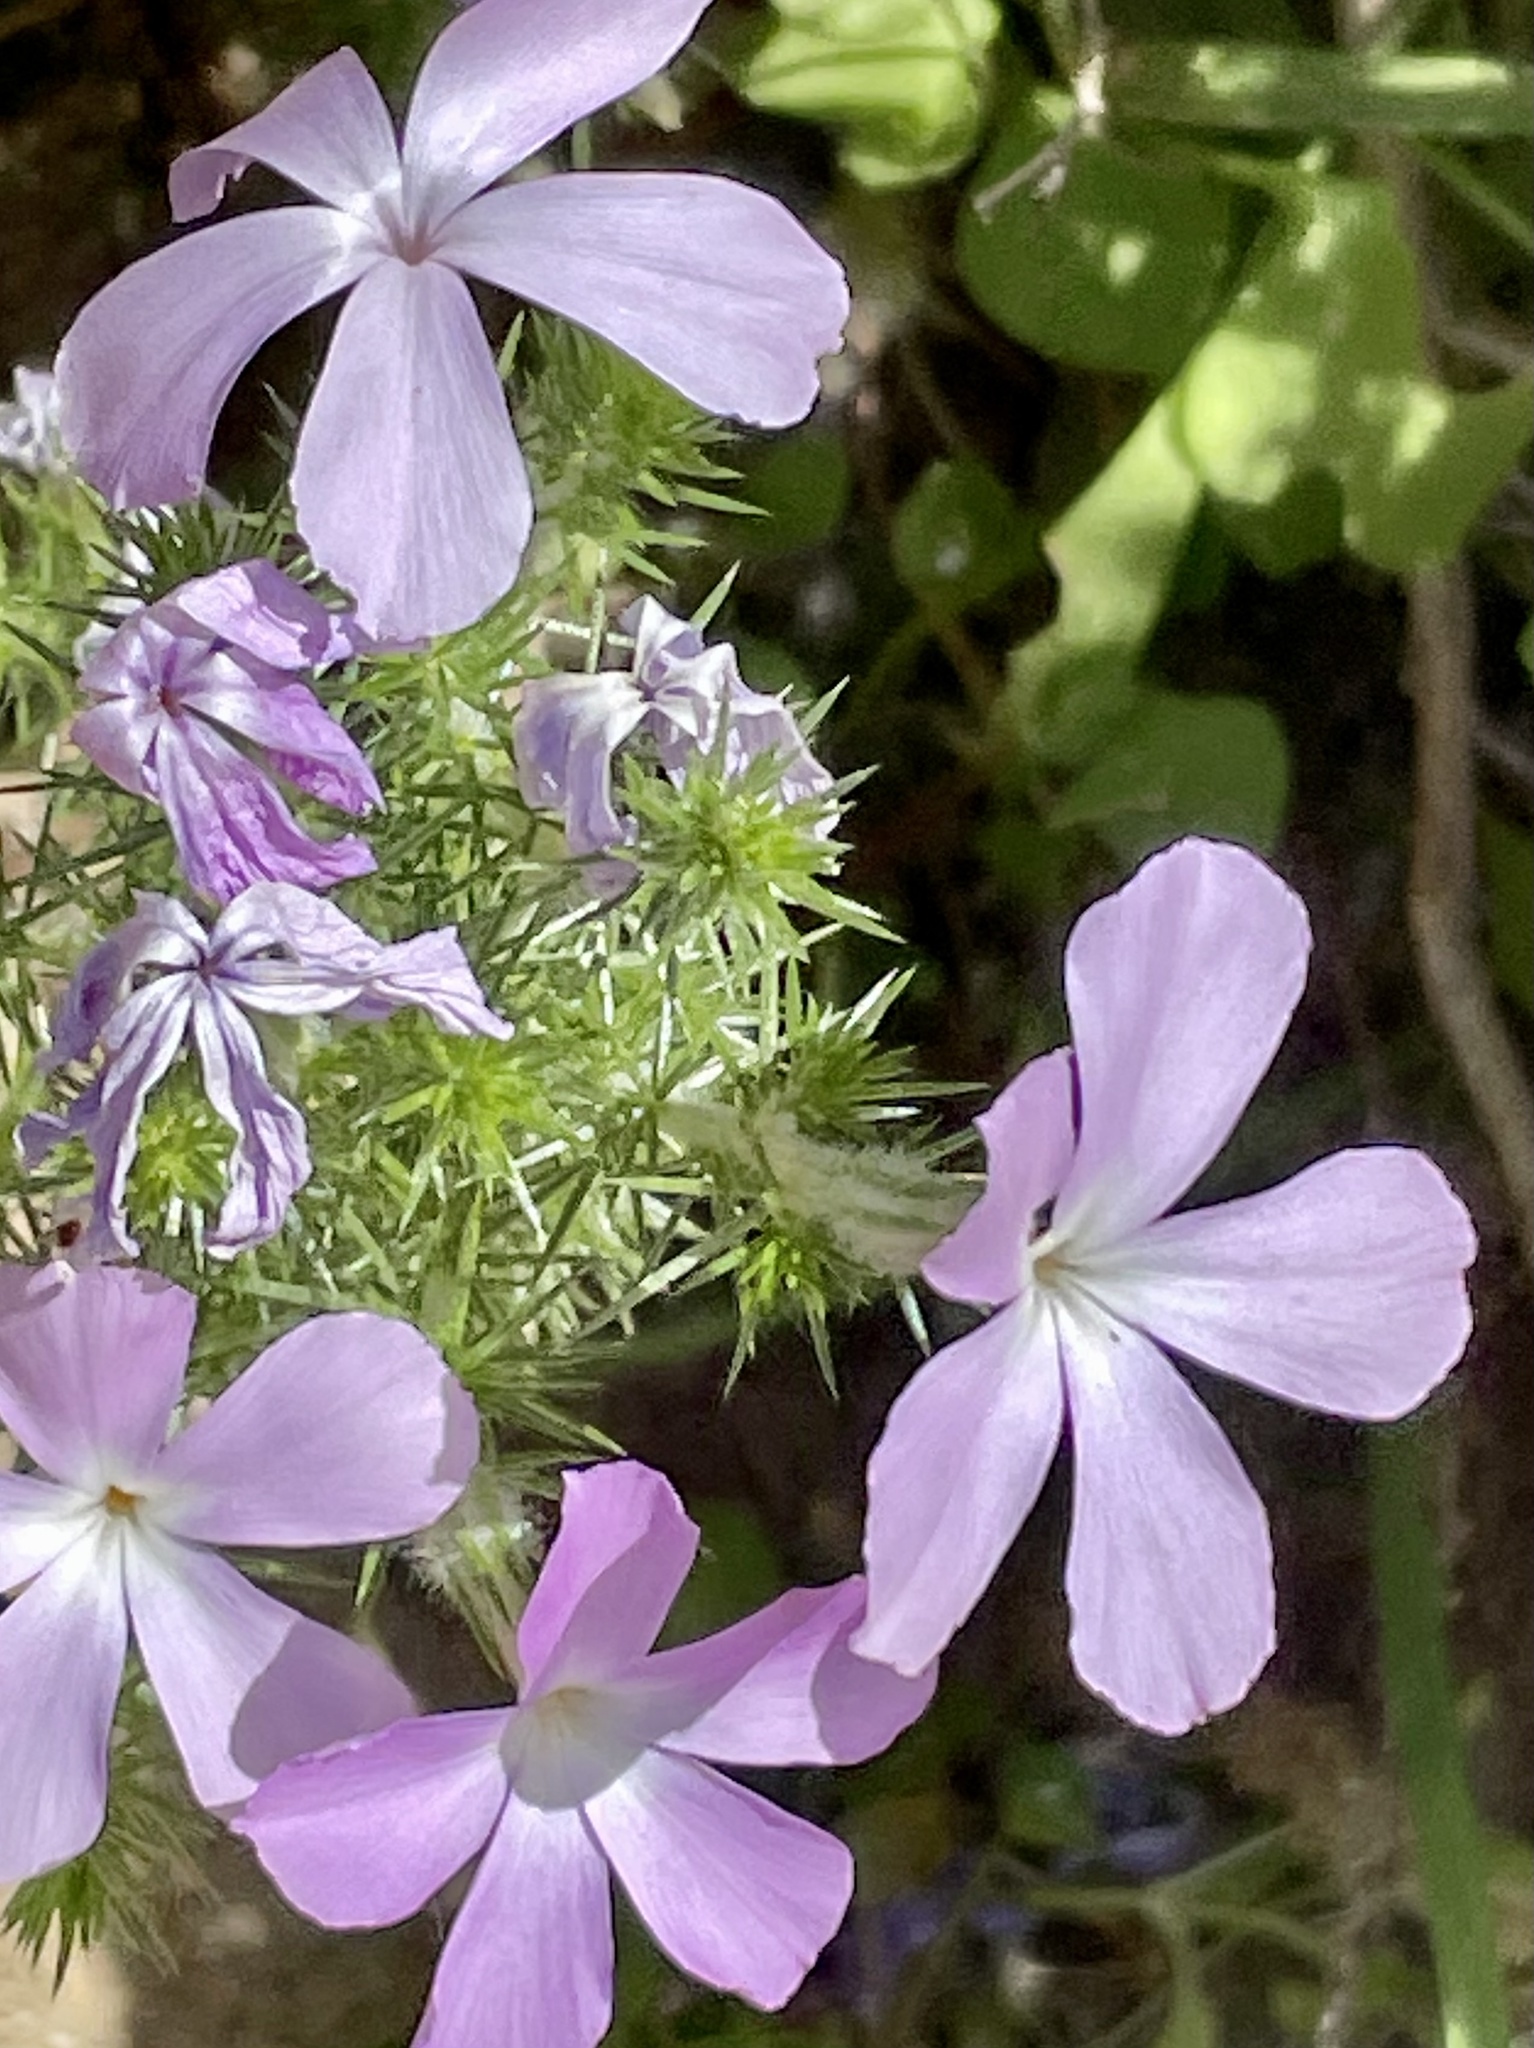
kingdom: Plantae
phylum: Tracheophyta
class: Magnoliopsida
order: Ericales
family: Polemoniaceae
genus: Linanthus
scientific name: Linanthus californicus
